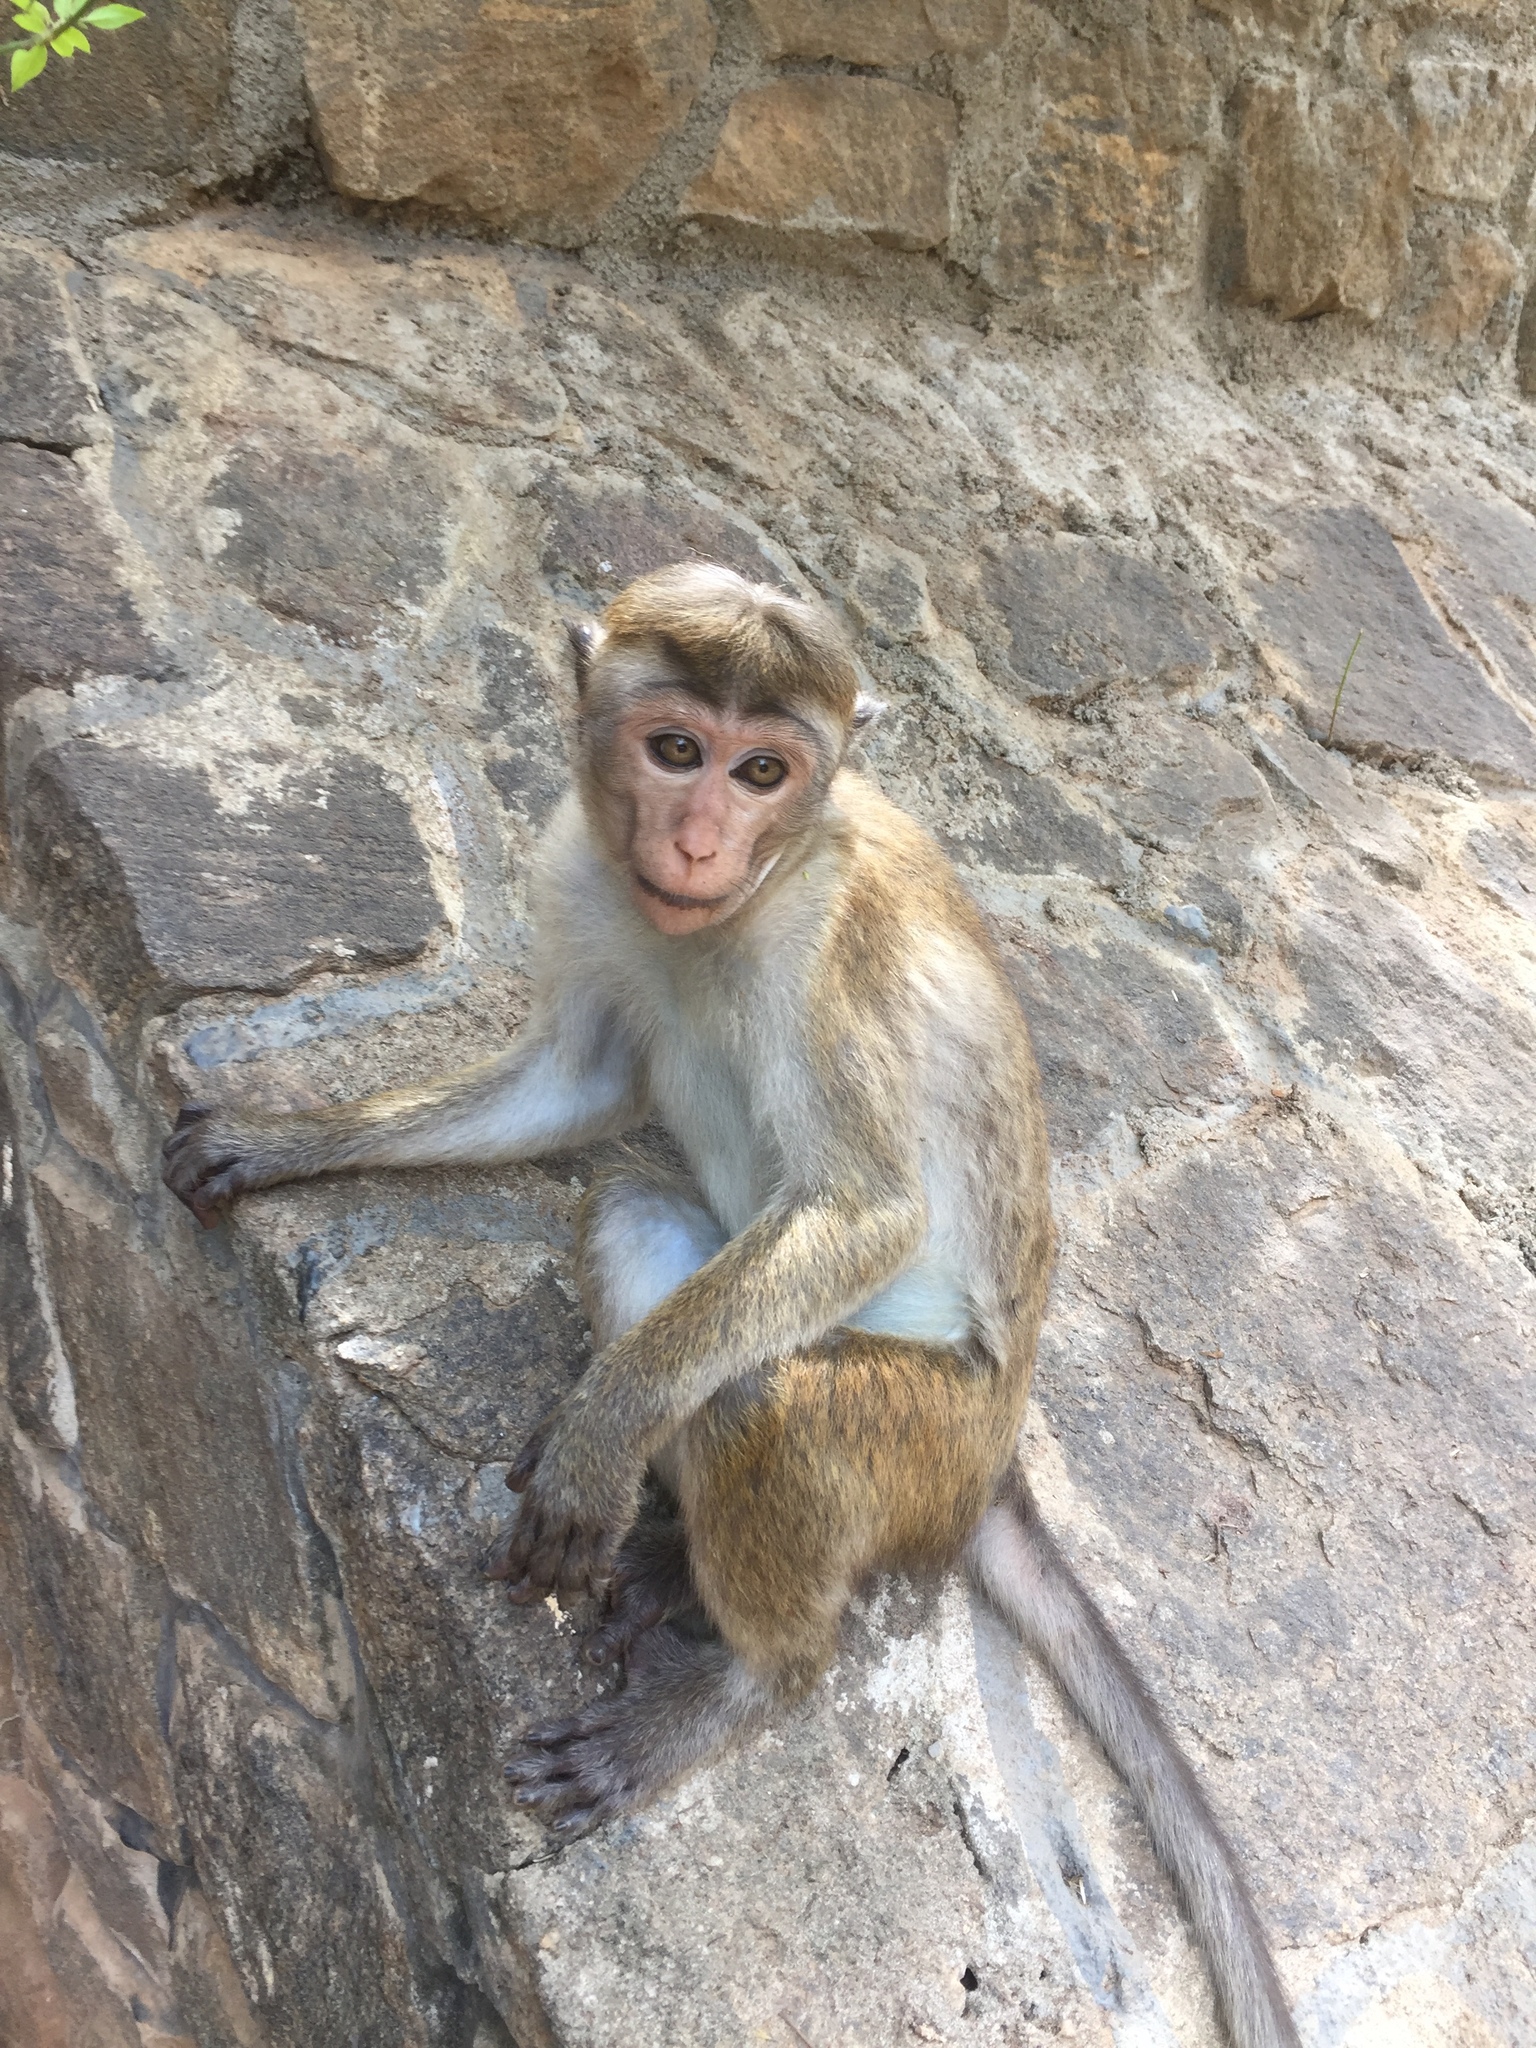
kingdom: Animalia
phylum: Chordata
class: Mammalia
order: Primates
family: Cercopithecidae
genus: Macaca
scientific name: Macaca sinica
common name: Toque macaque
